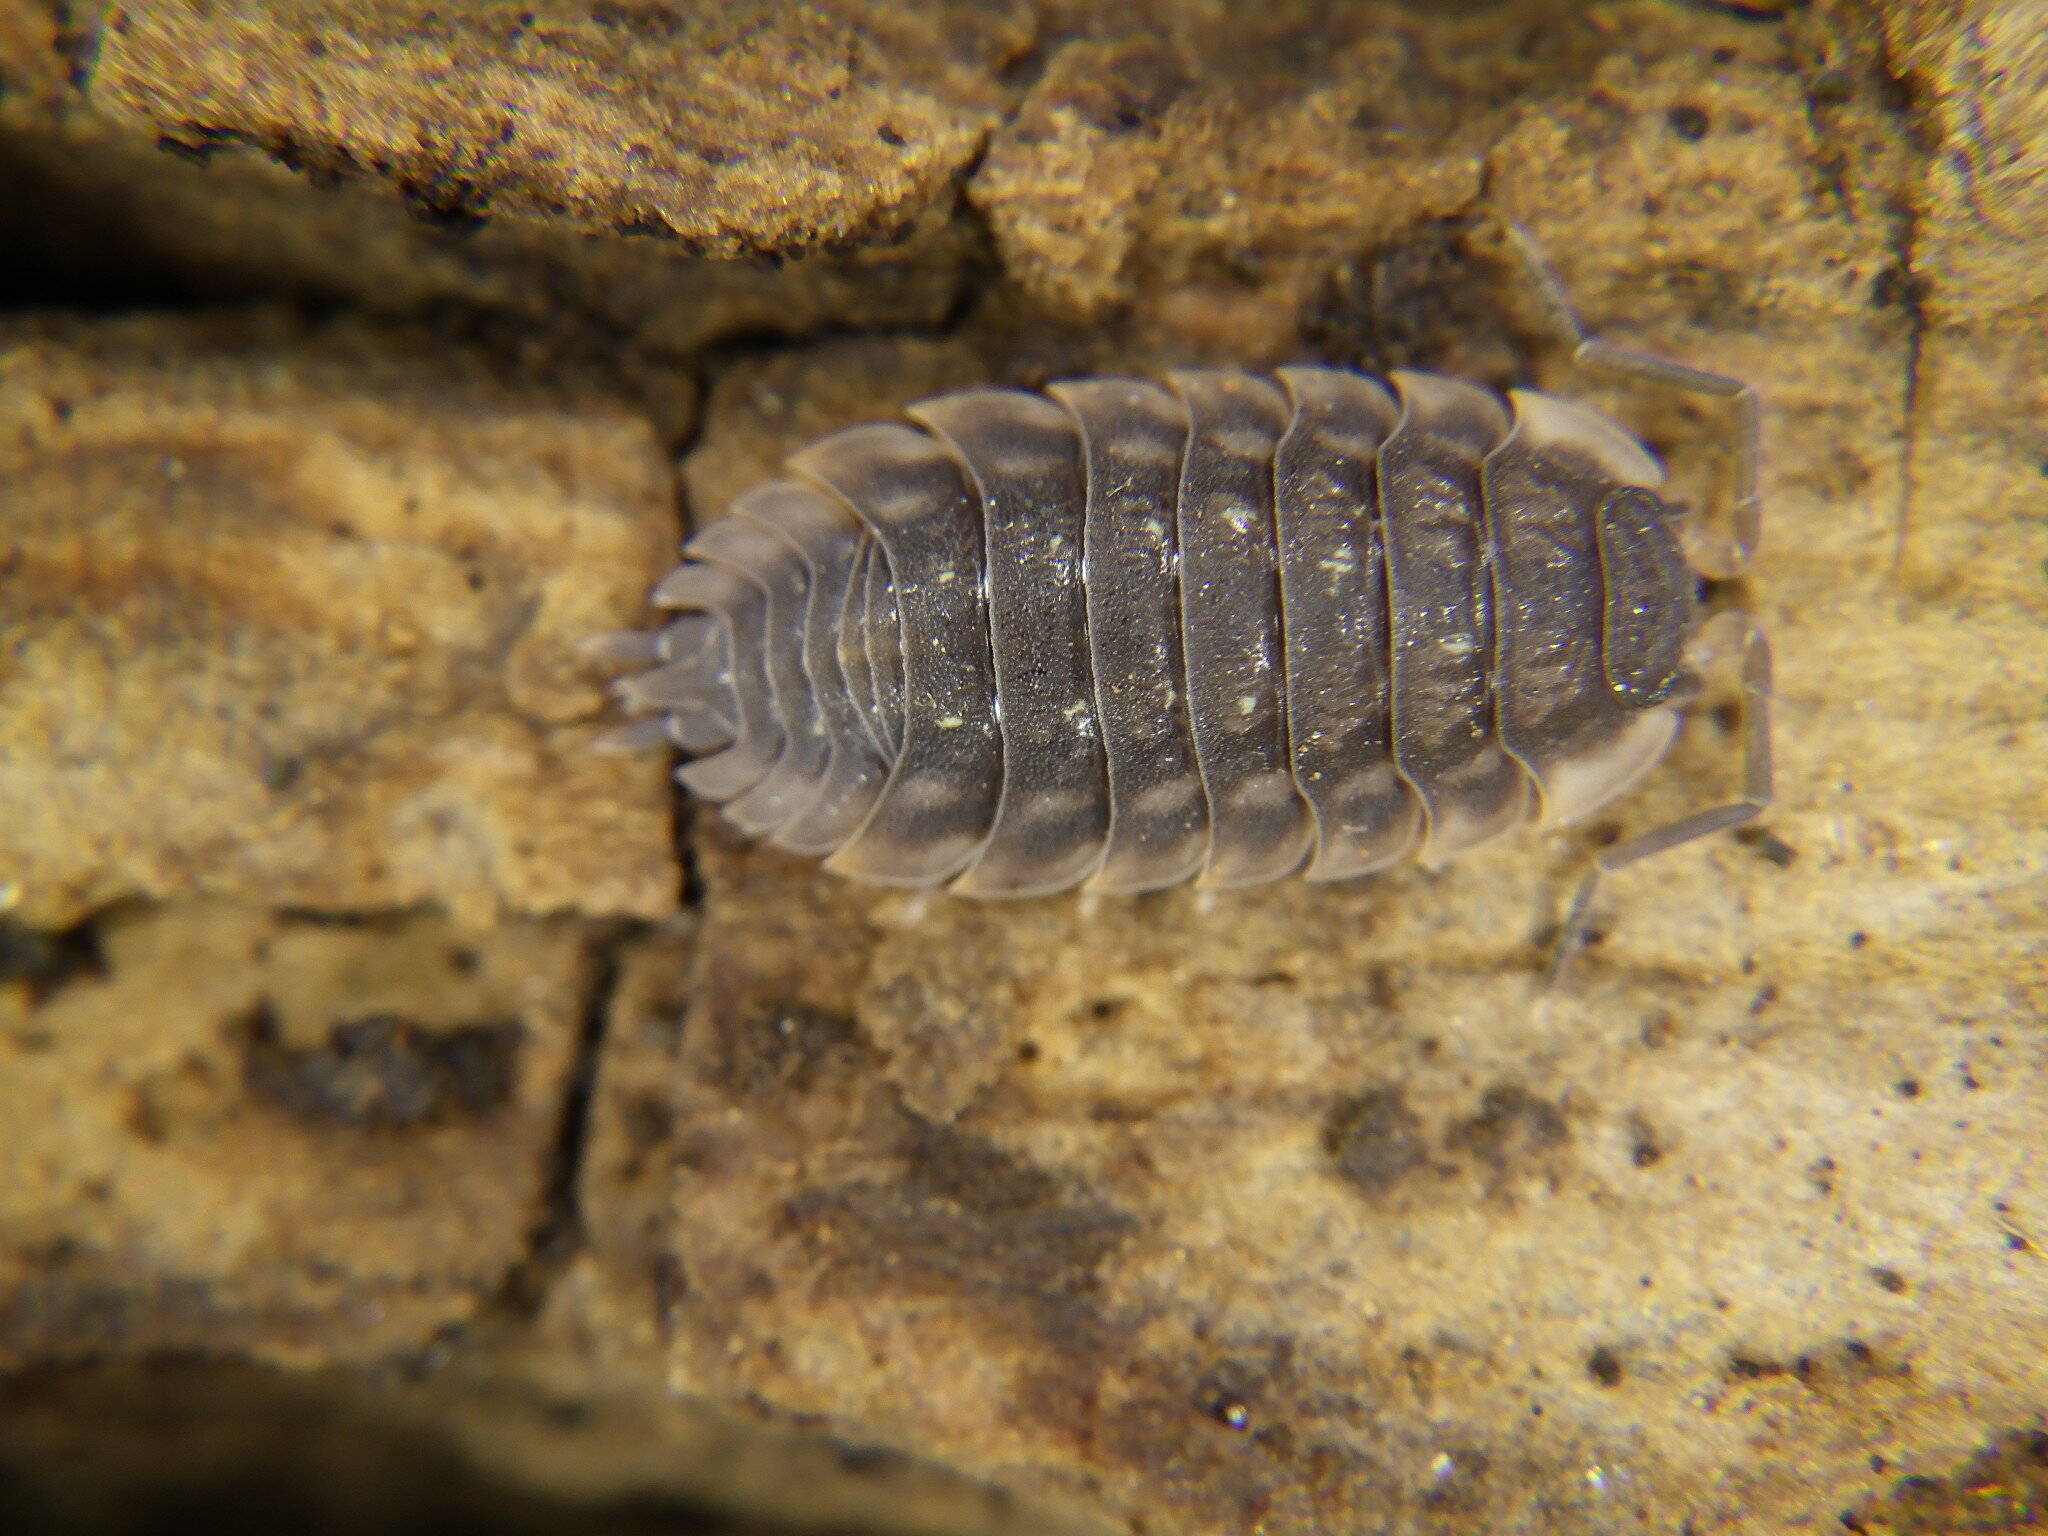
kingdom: Animalia
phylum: Arthropoda
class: Malacostraca
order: Isopoda
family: Oniscidae
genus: Oniscus
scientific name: Oniscus asellus
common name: Common shiny woodlouse
